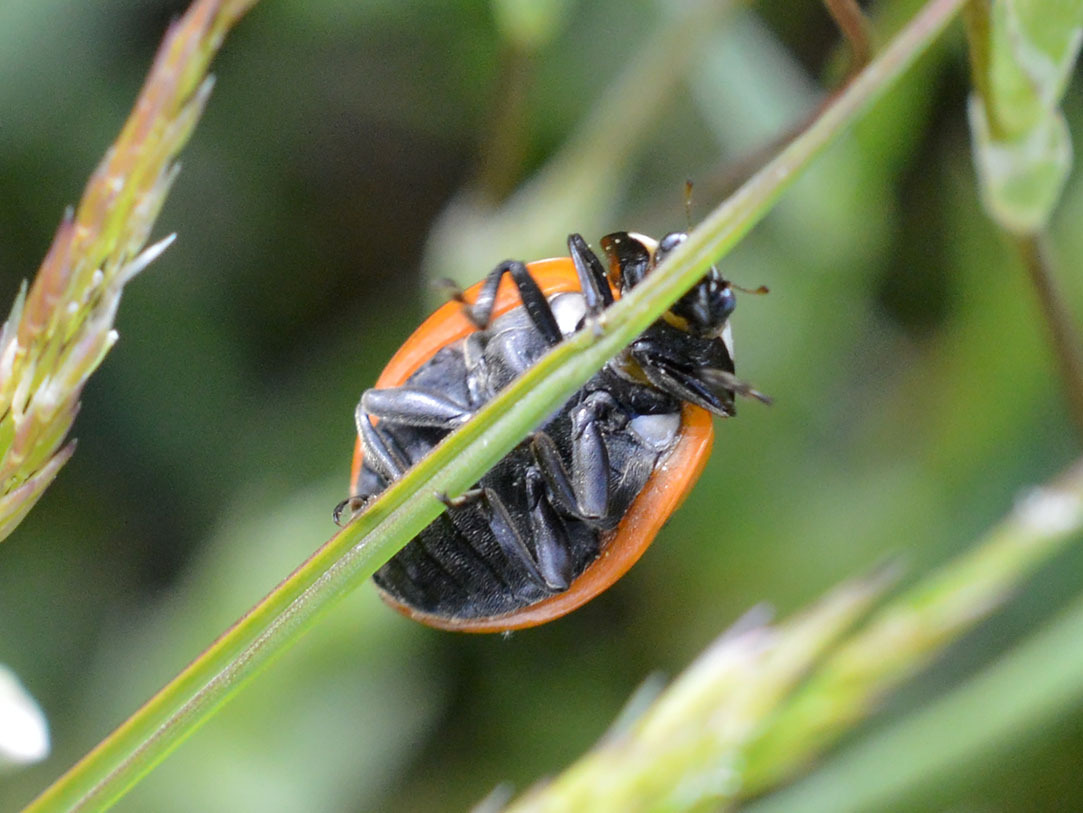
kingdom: Animalia
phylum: Arthropoda
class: Insecta
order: Coleoptera
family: Coccinellidae
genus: Coccinella
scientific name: Coccinella septempunctata
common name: Sevenspotted lady beetle
